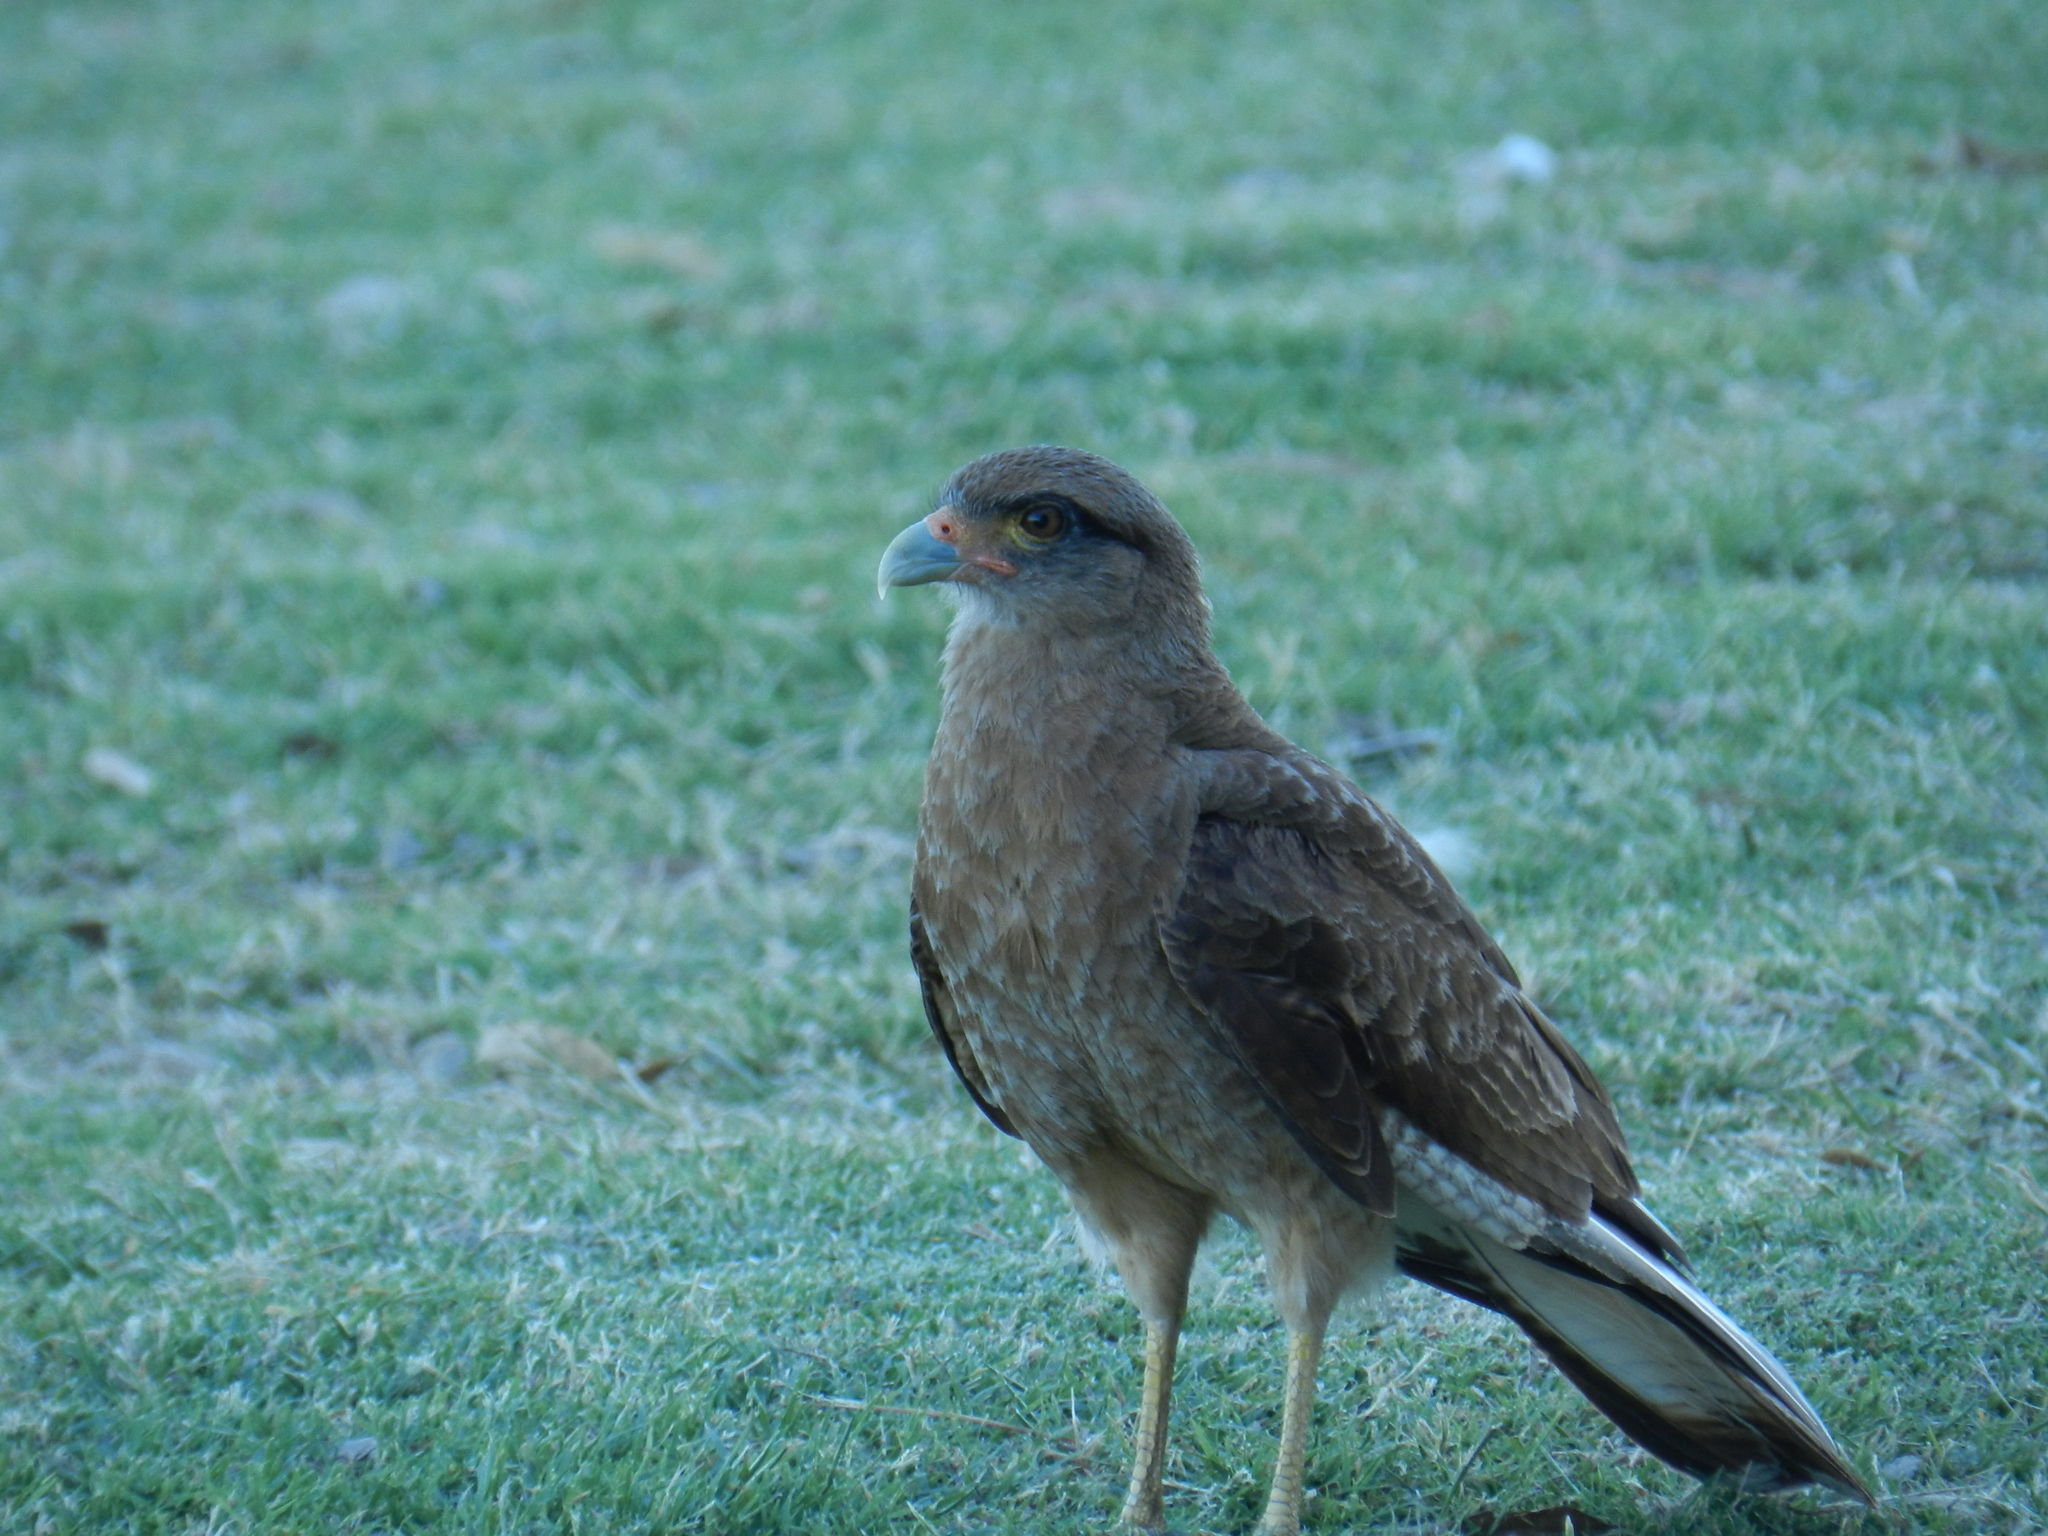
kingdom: Animalia
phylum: Chordata
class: Aves
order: Falconiformes
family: Falconidae
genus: Daptrius
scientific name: Daptrius
